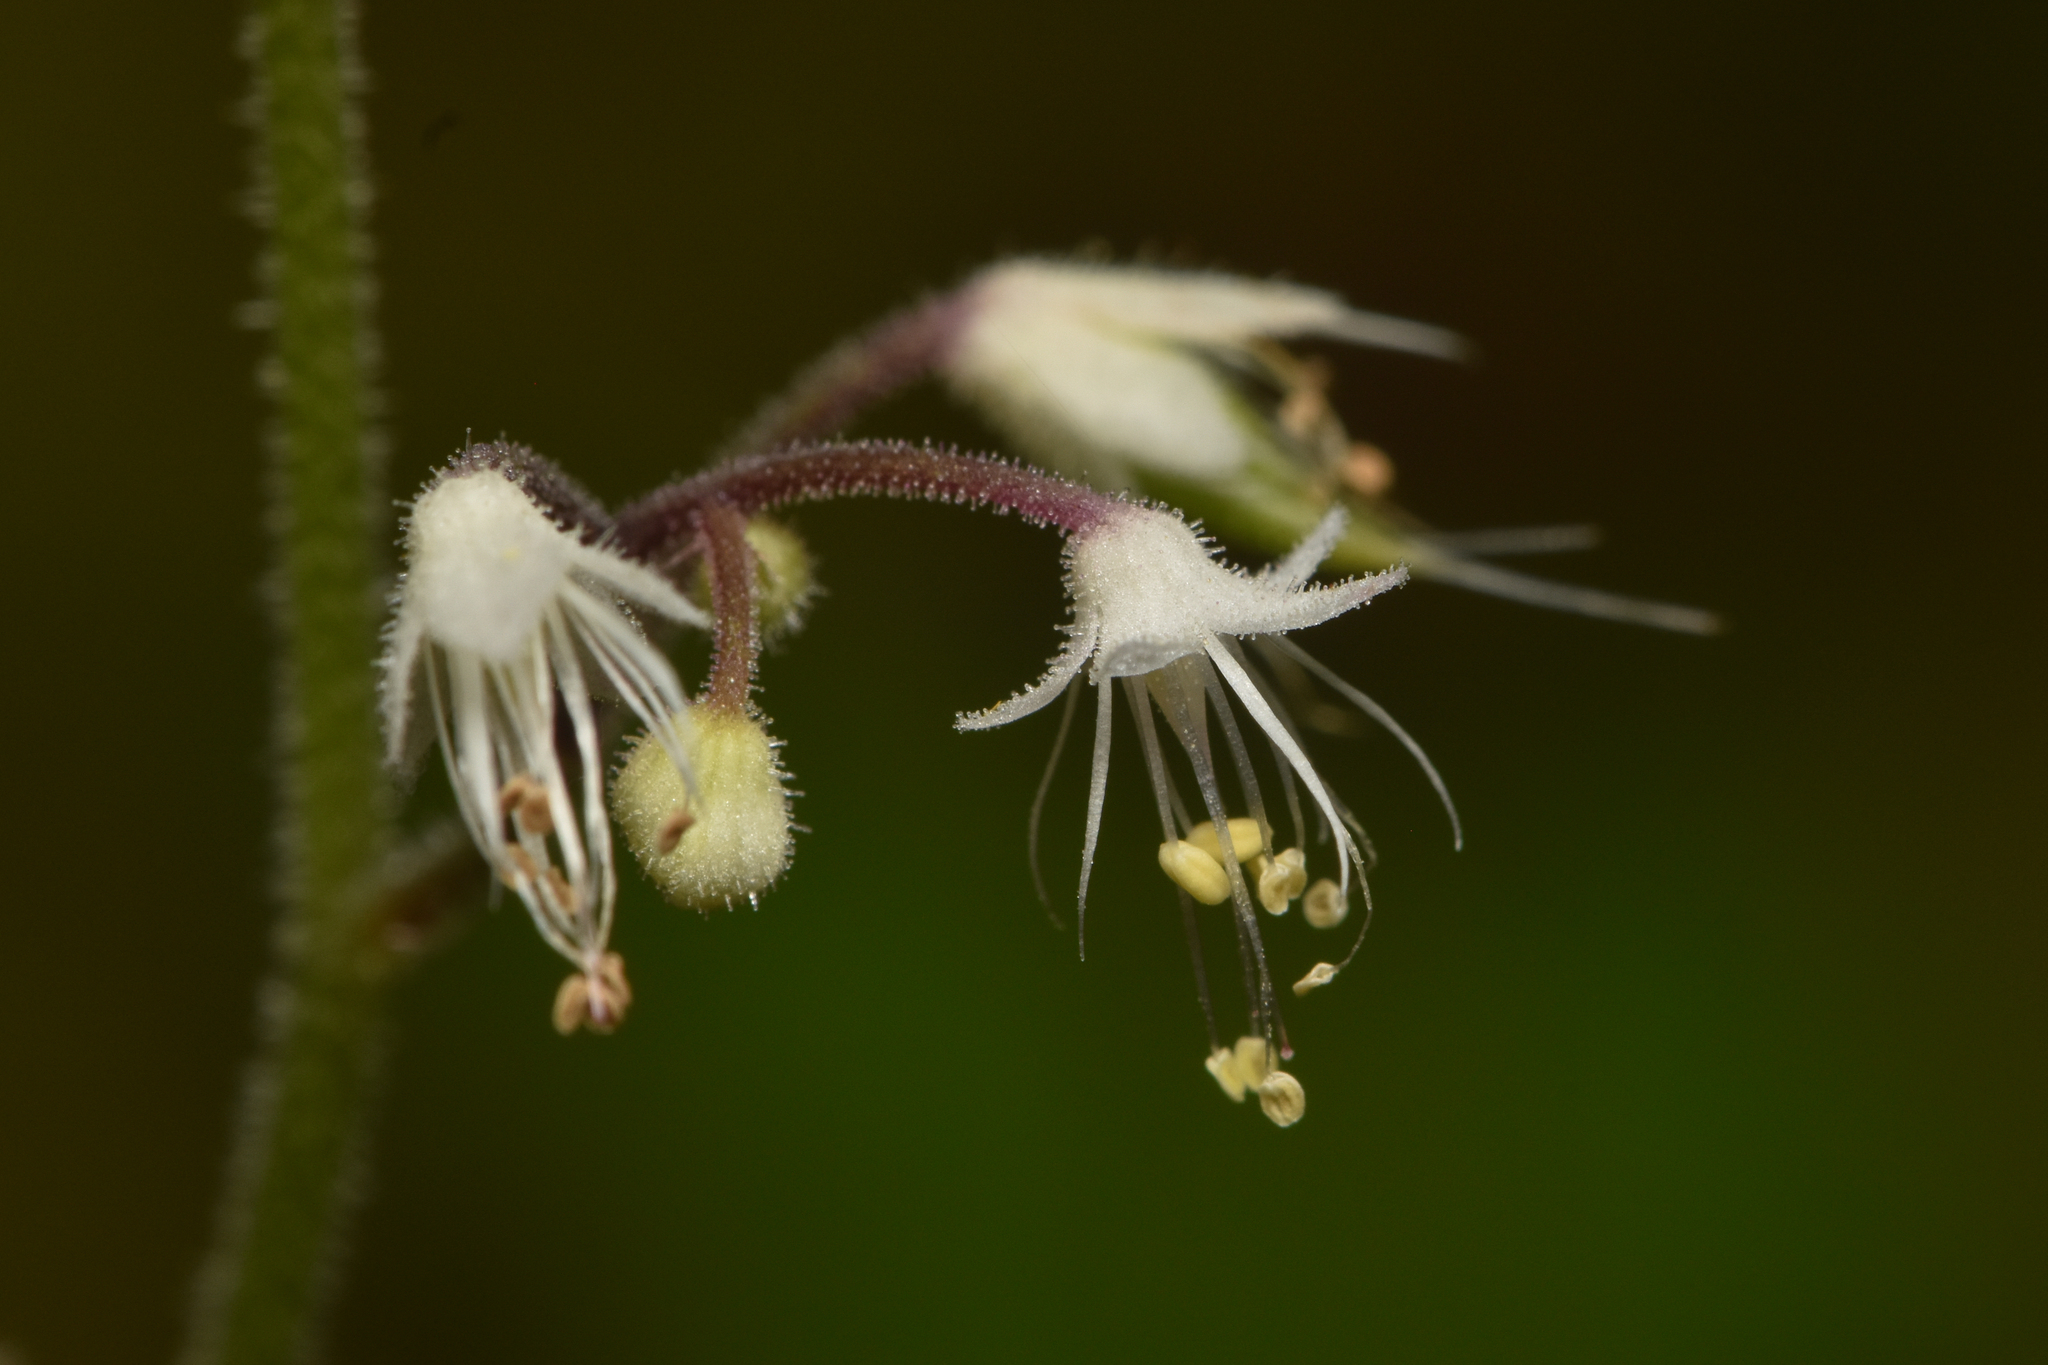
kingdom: Plantae
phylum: Tracheophyta
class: Magnoliopsida
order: Saxifragales
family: Saxifragaceae
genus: Tiarella
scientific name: Tiarella trifoliata
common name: Sugar-scoop
